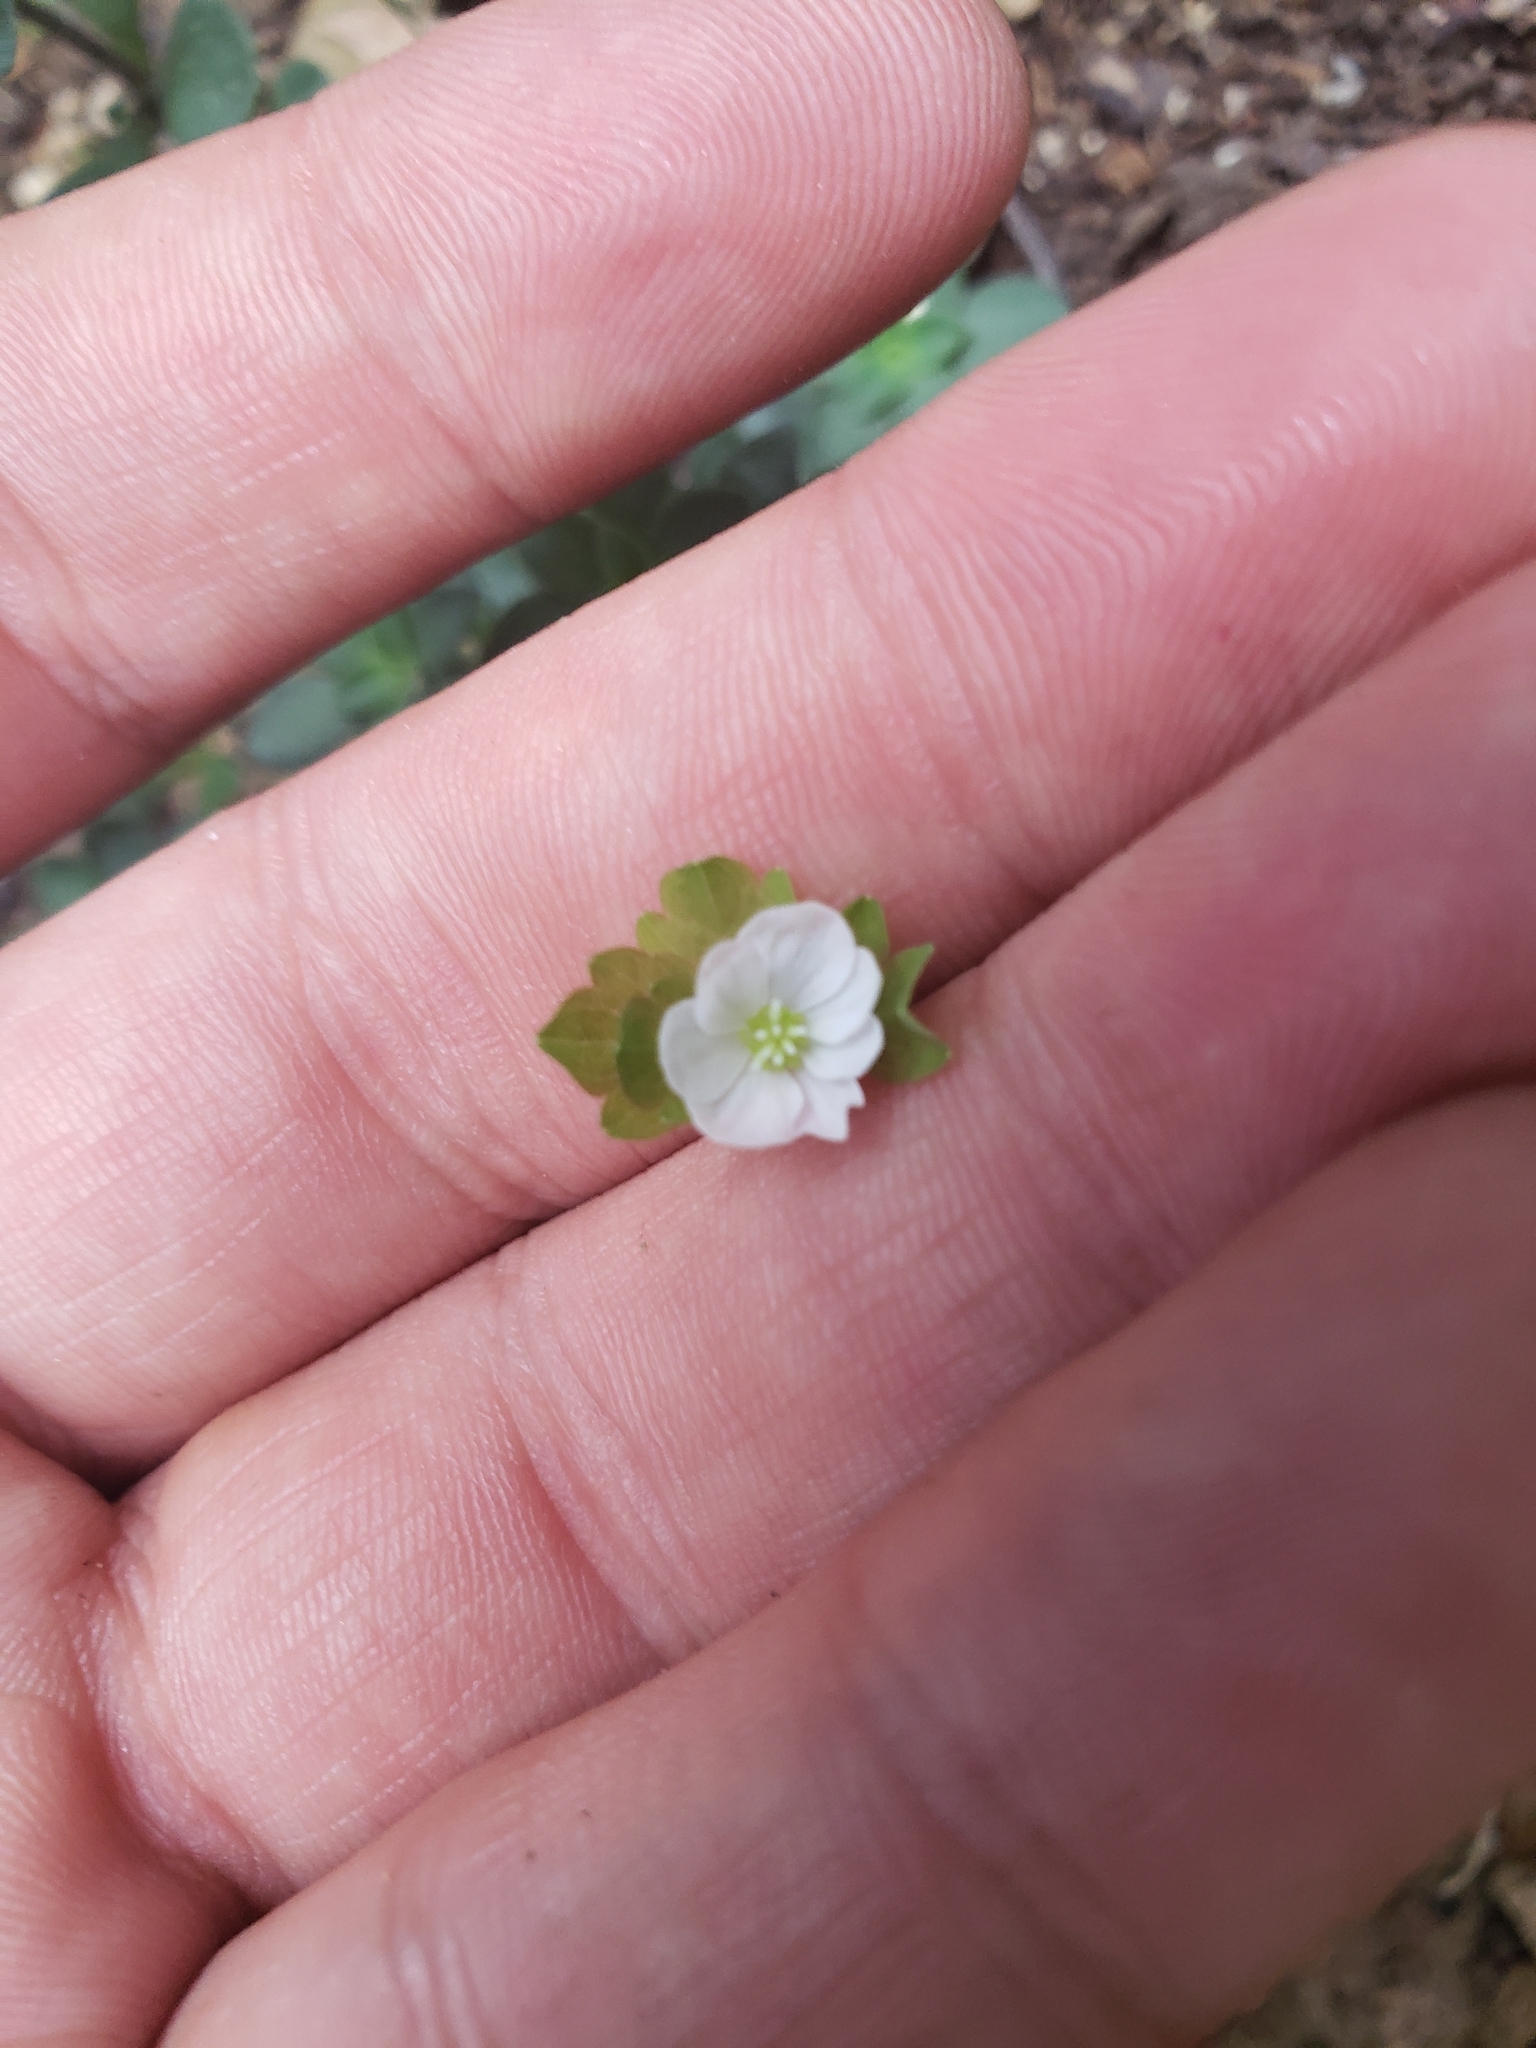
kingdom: Plantae
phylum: Tracheophyta
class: Magnoliopsida
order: Ranunculales
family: Ranunculaceae
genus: Thalictrum
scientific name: Thalictrum thalictroides
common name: Rue-anemone
